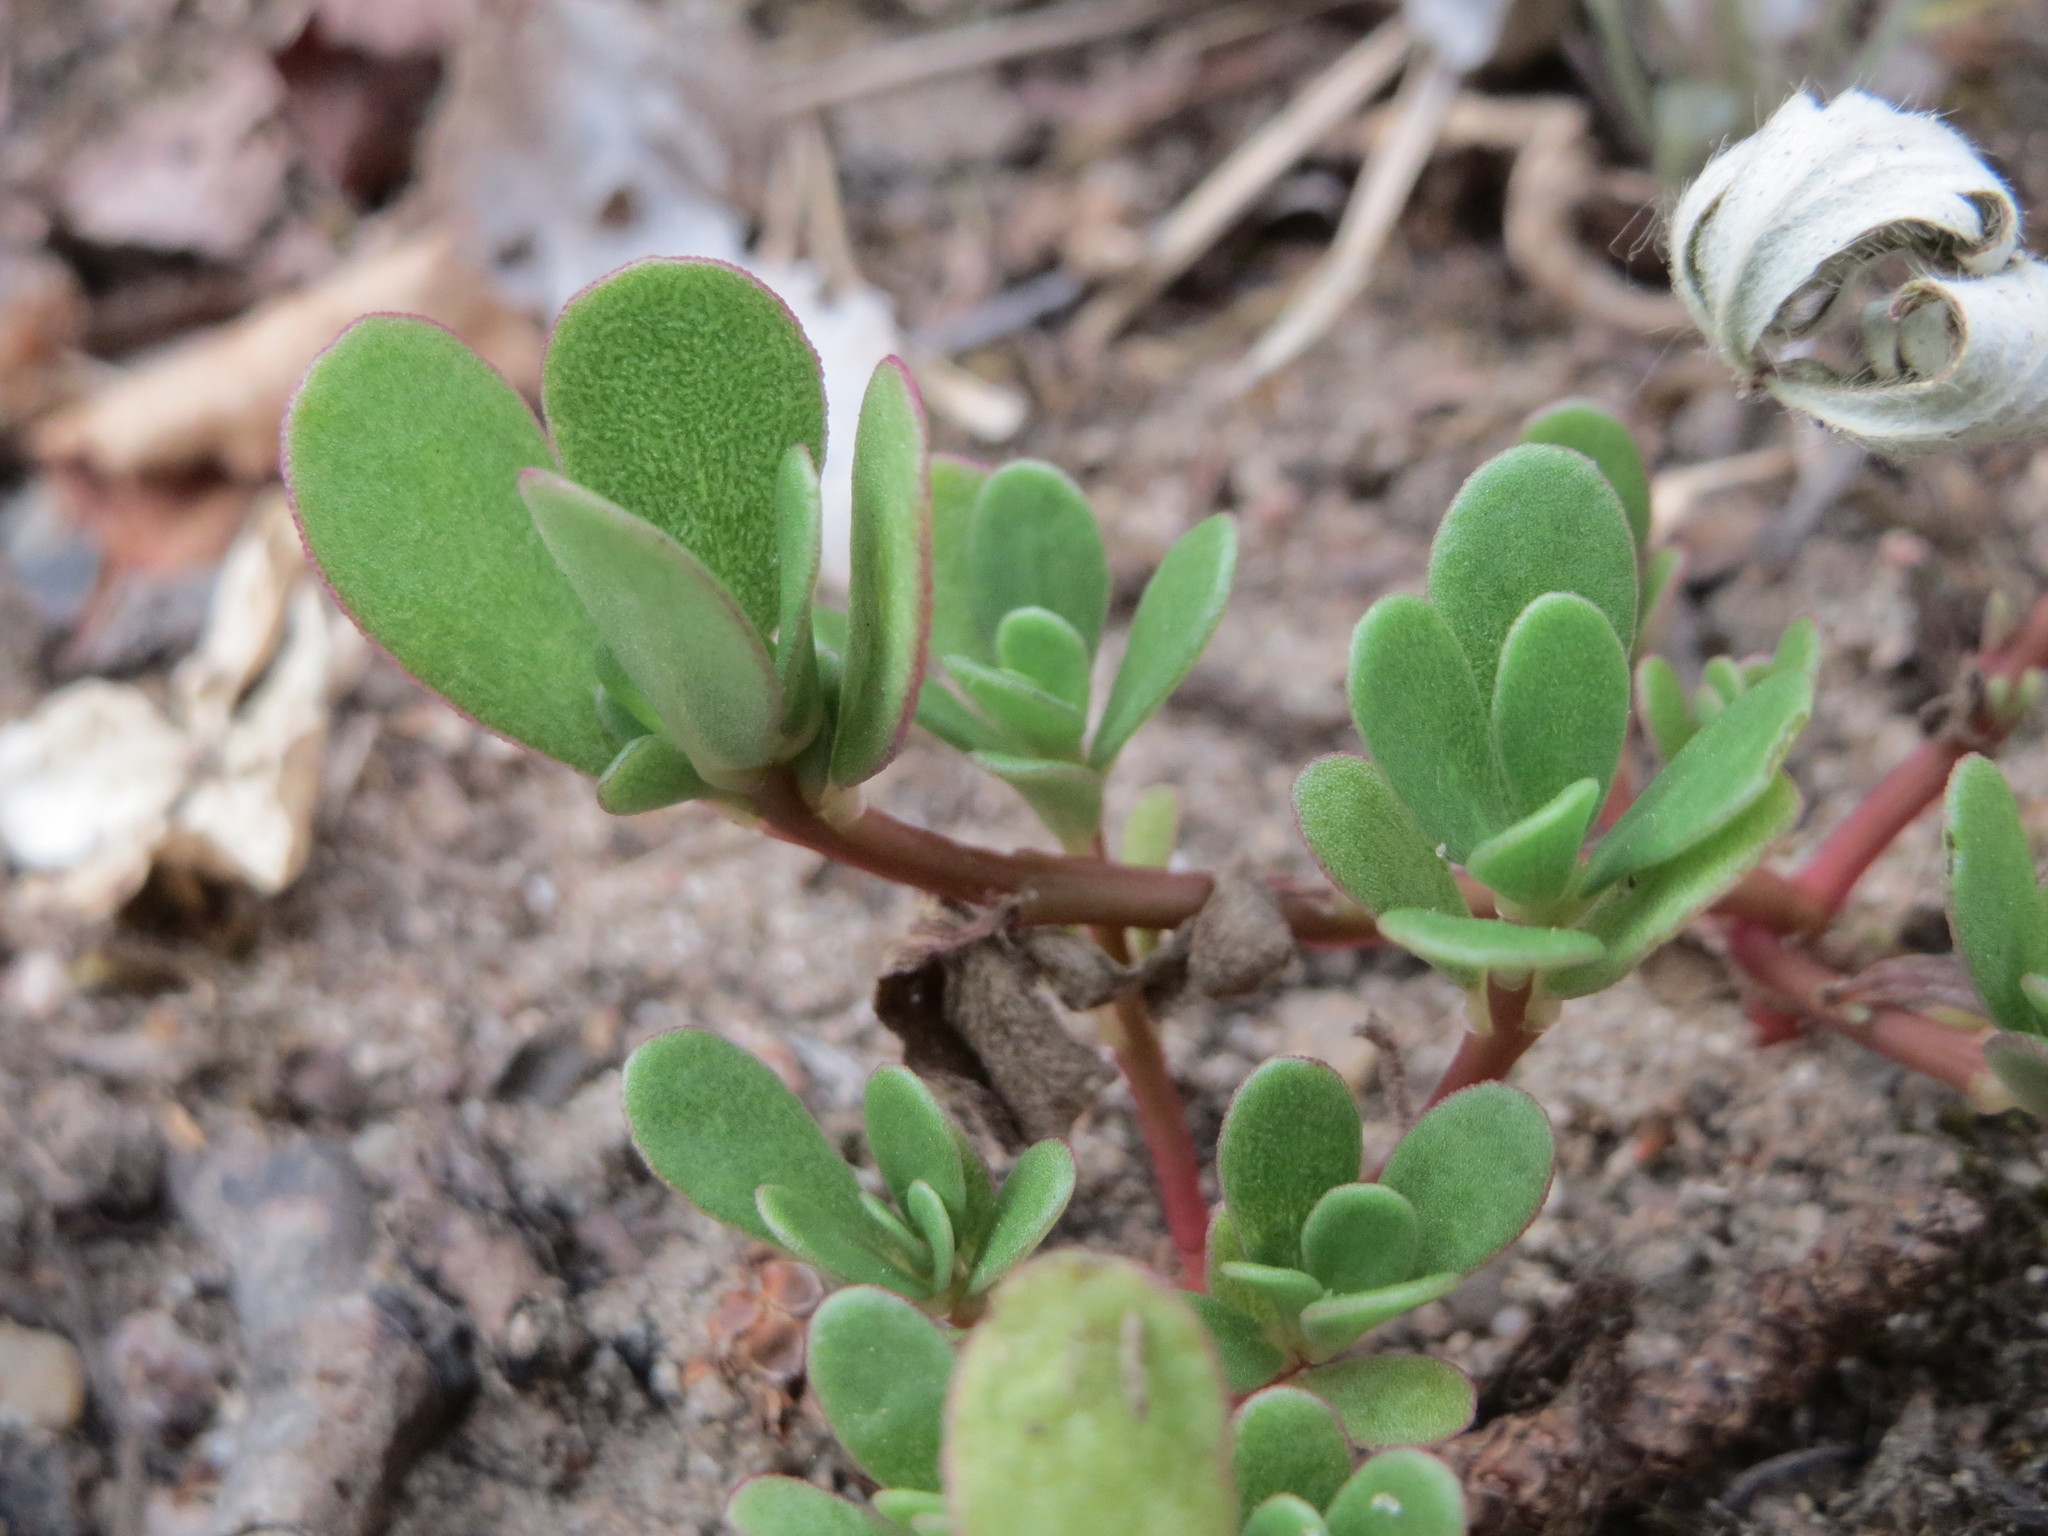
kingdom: Plantae
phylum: Tracheophyta
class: Magnoliopsida
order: Caryophyllales
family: Portulacaceae
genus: Portulaca
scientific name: Portulaca oleracea
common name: Common purslane
